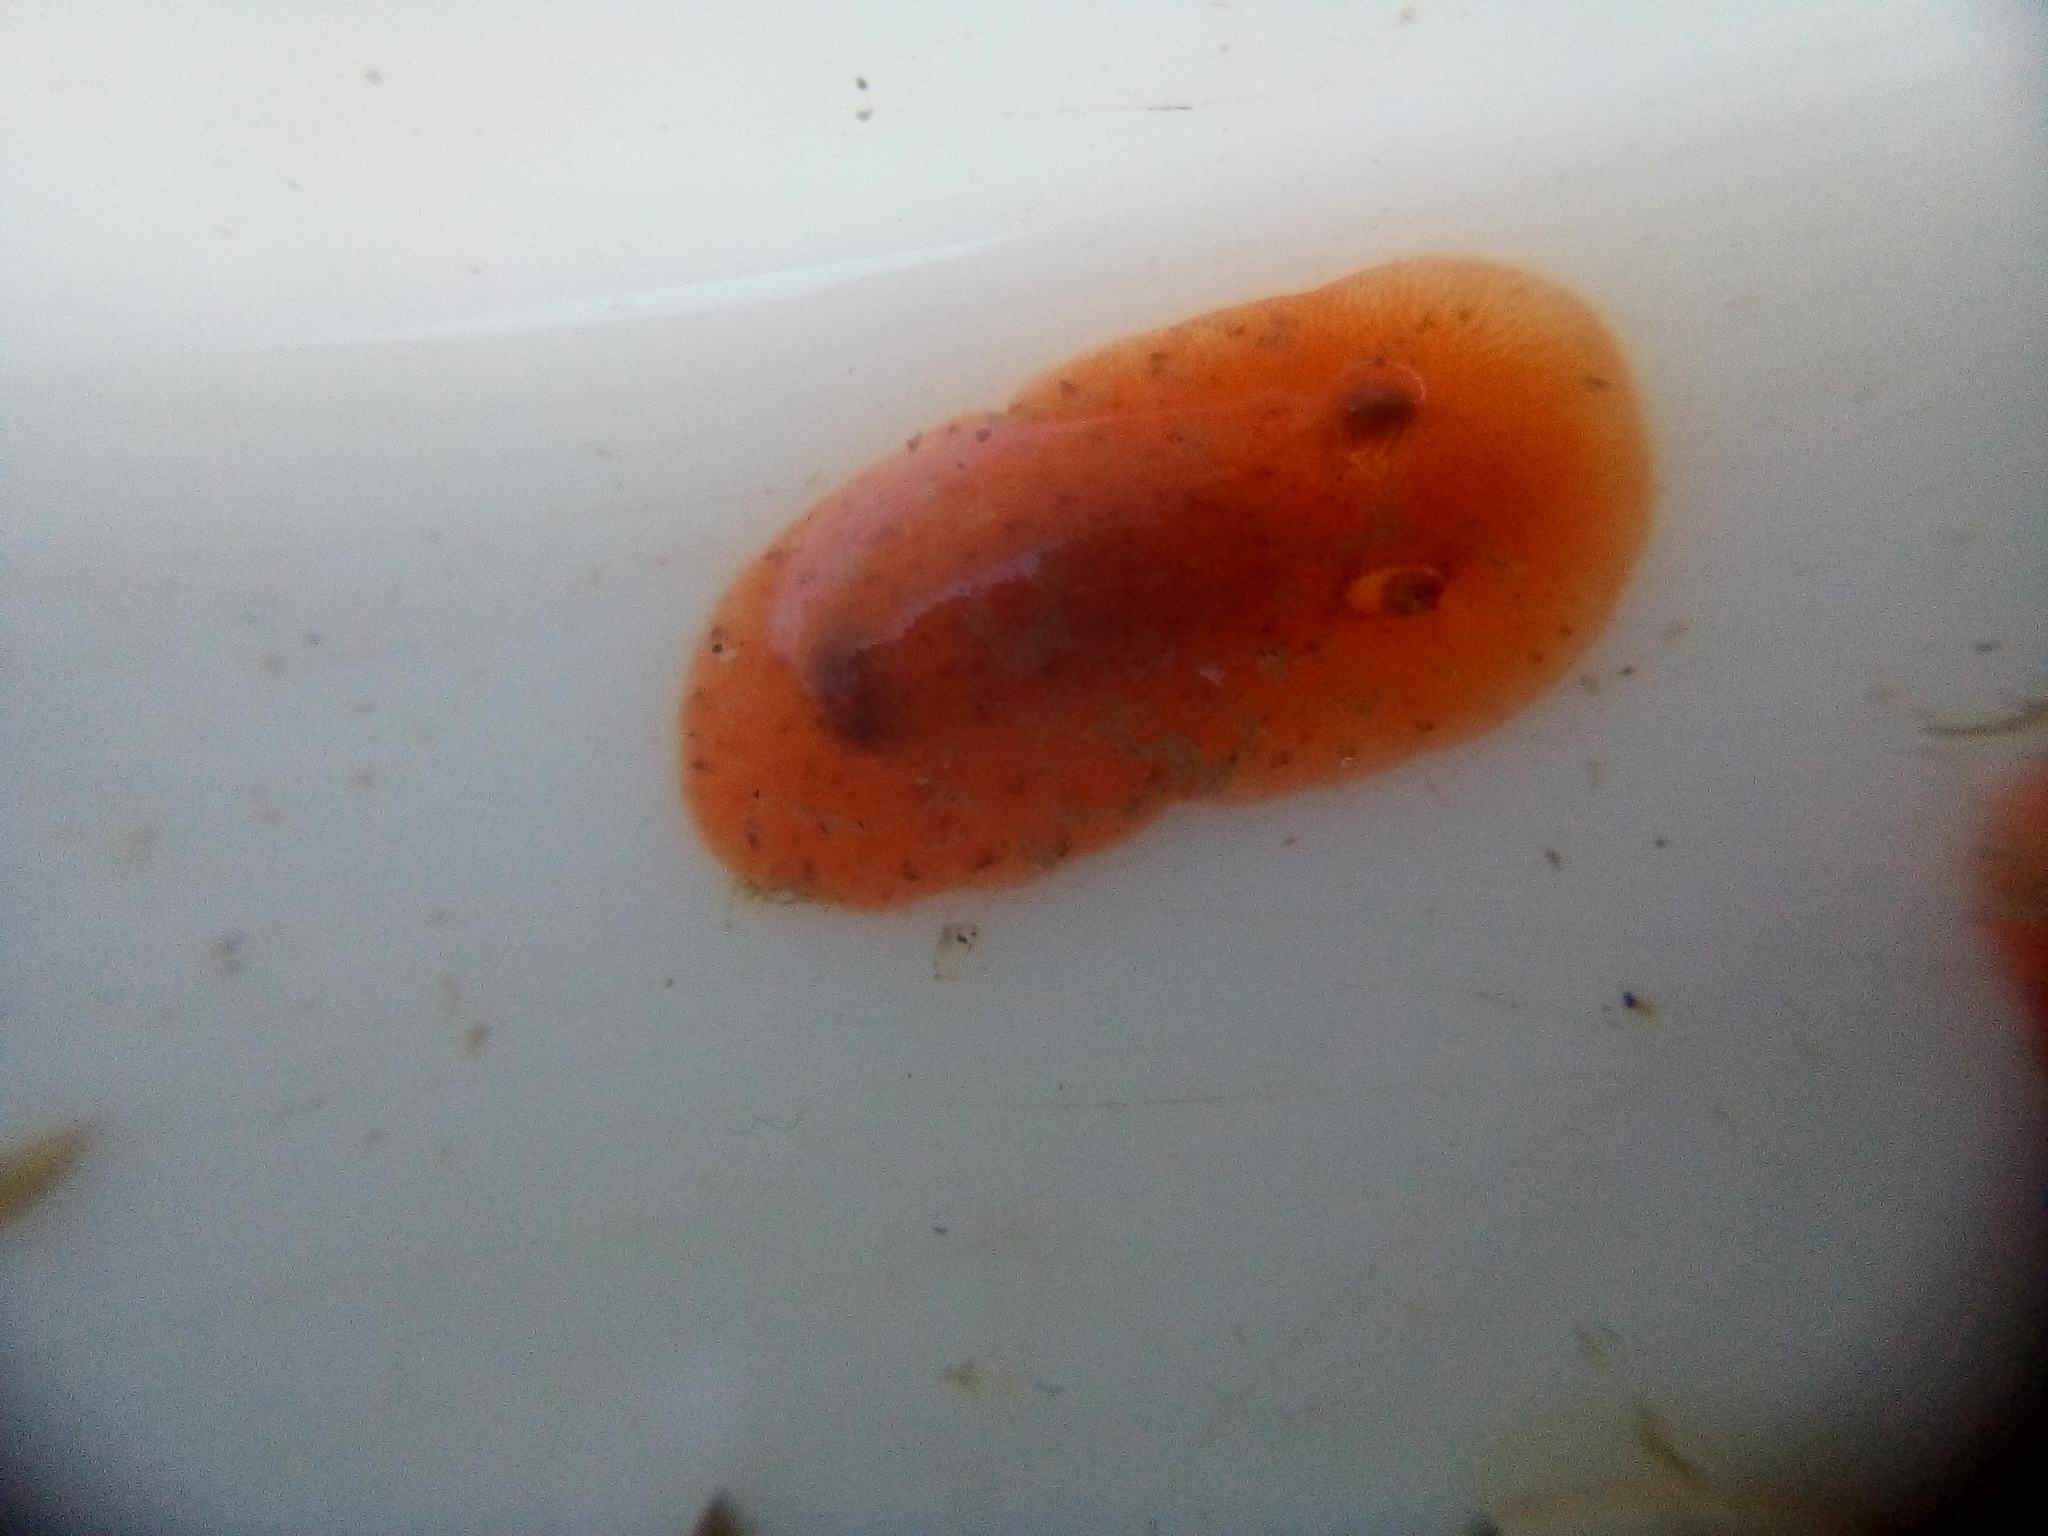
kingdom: Animalia
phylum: Mollusca
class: Gastropoda
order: Nudibranchia
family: Discodorididae
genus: Rostanga
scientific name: Rostanga muscula
